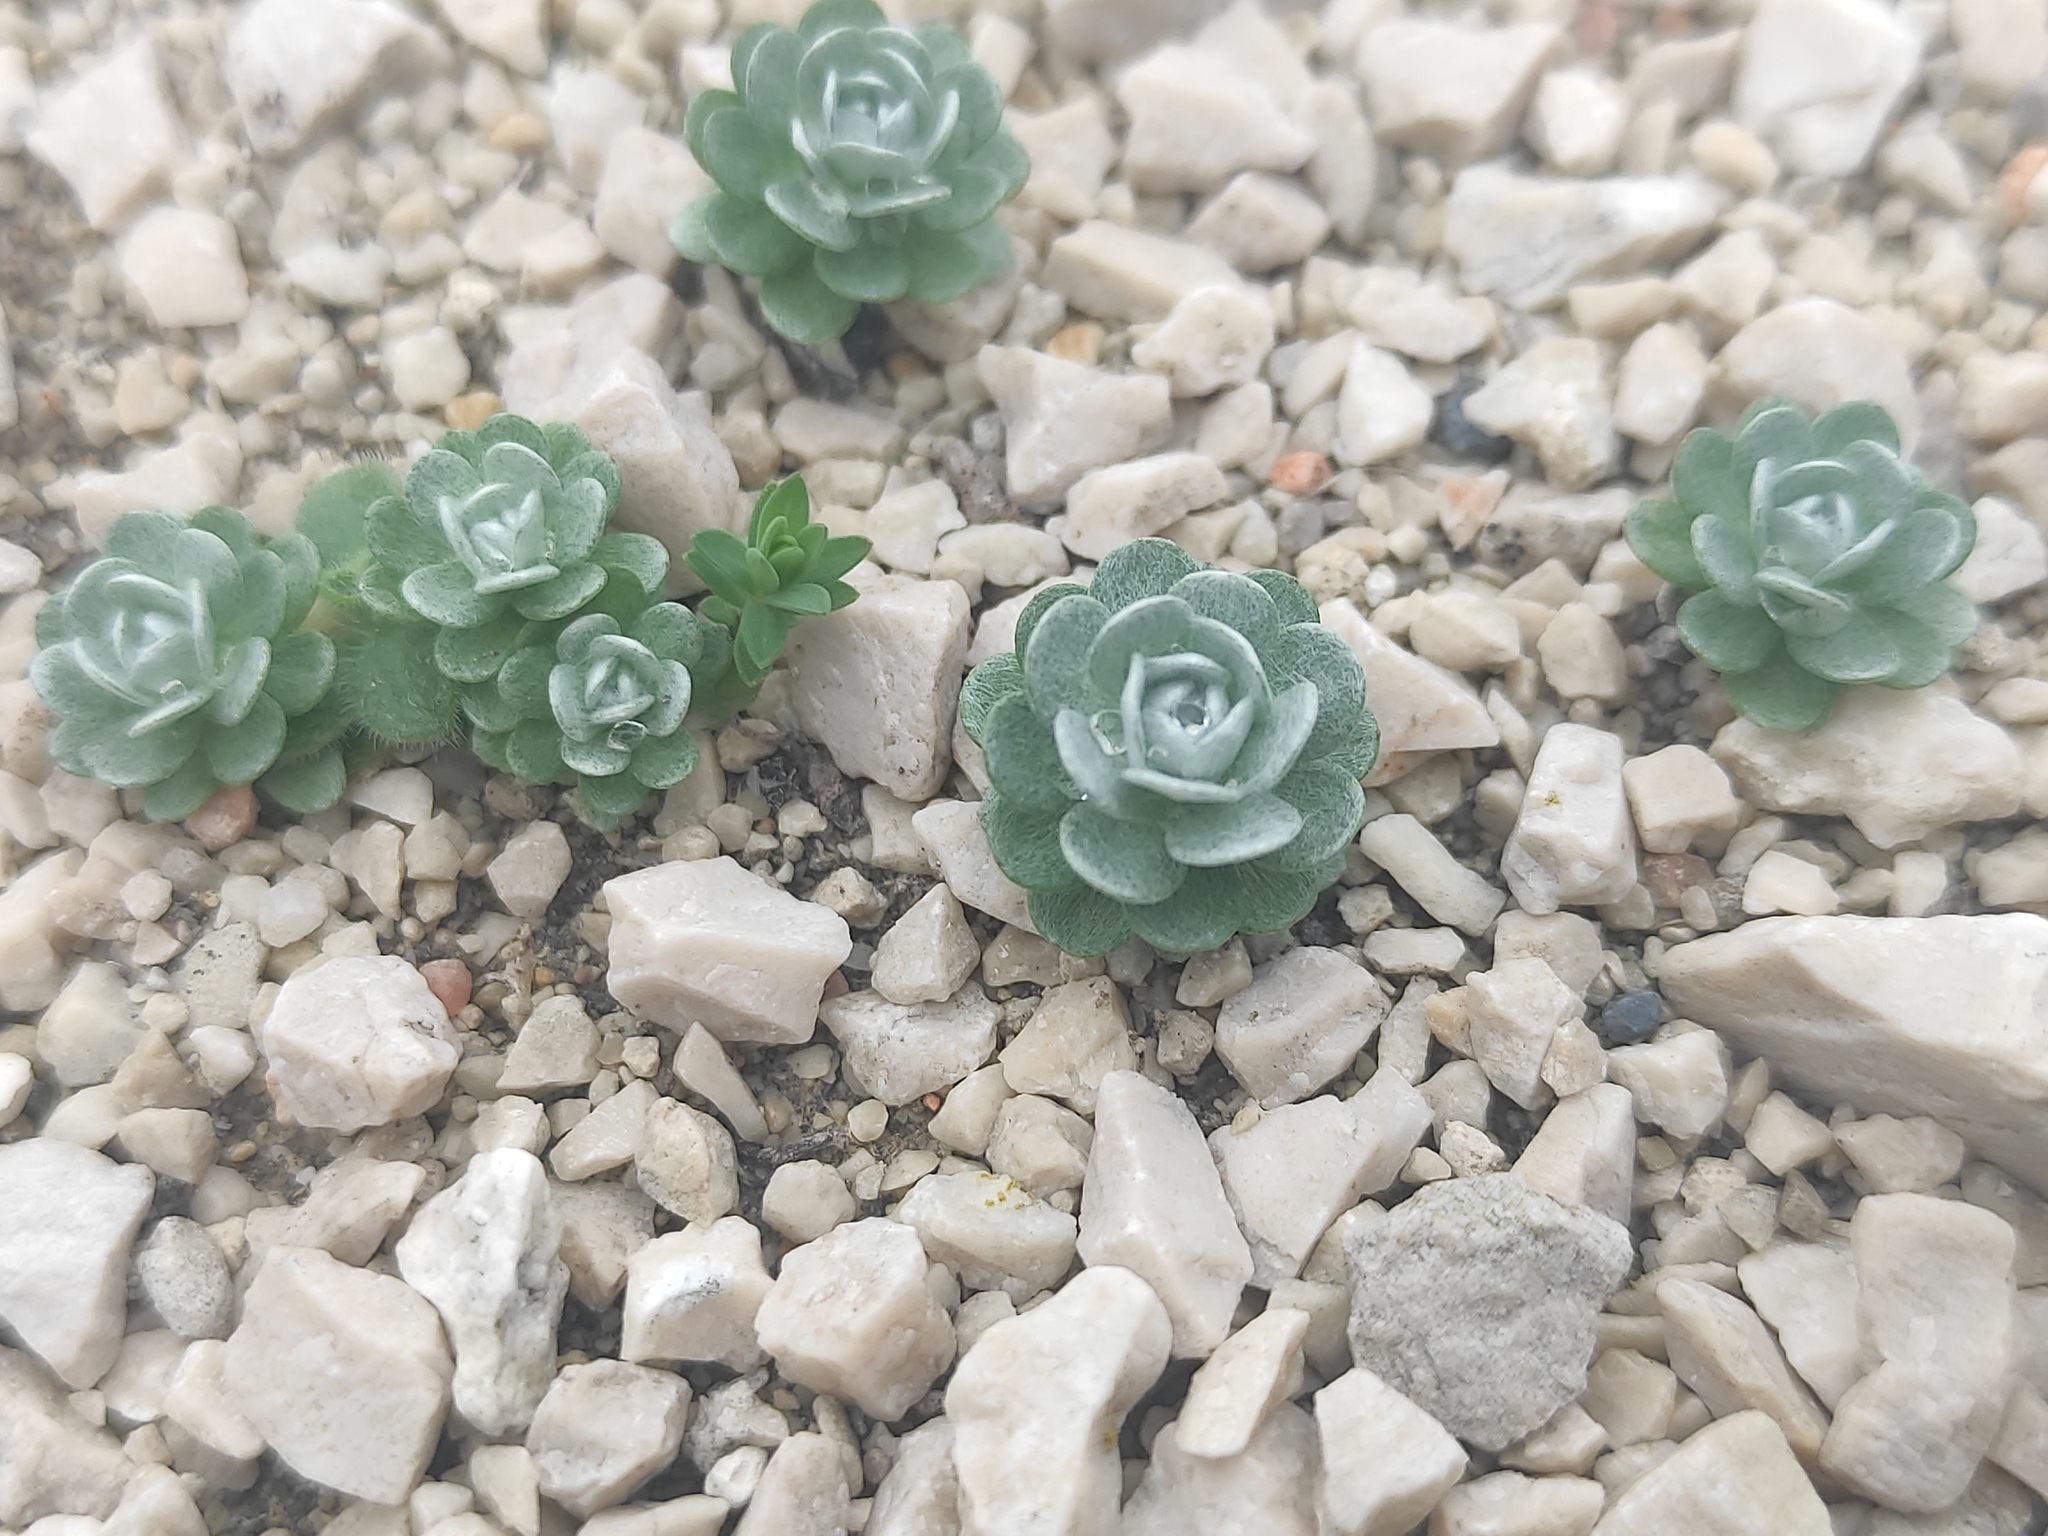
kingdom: Plantae
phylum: Tracheophyta
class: Magnoliopsida
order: Asterales
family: Asteraceae
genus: Filago
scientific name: Filago pygmaea
